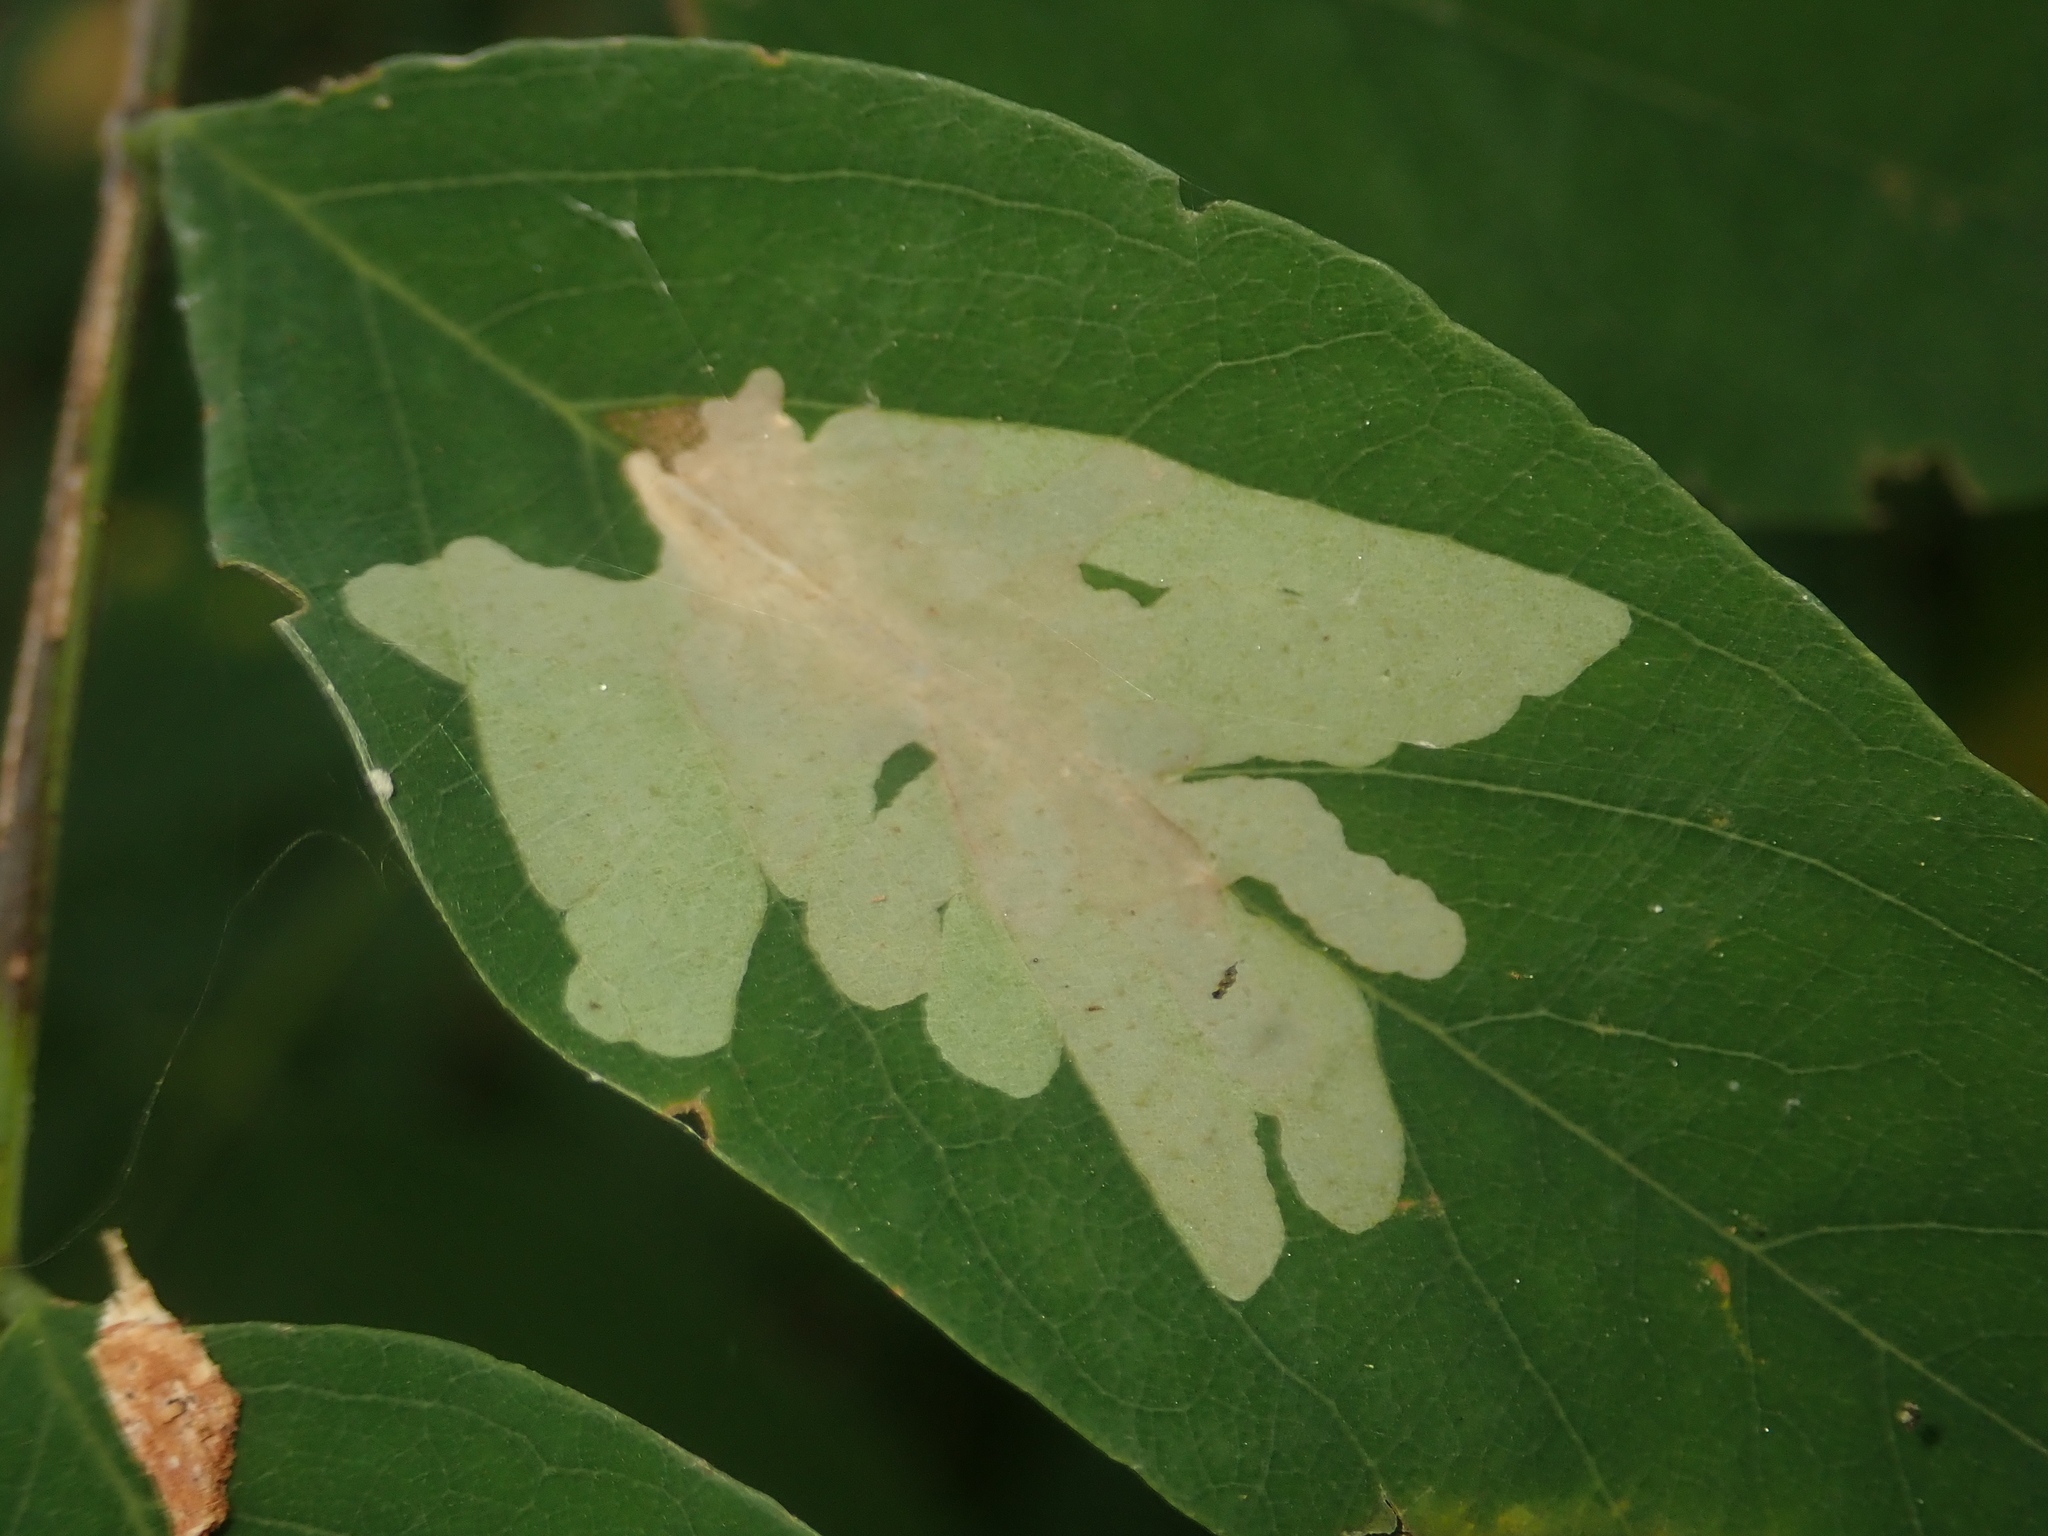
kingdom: Animalia
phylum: Arthropoda
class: Insecta
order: Lepidoptera
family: Gracillariidae
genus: Parectopa
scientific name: Parectopa robiniella
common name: Locust digitate leafminer
